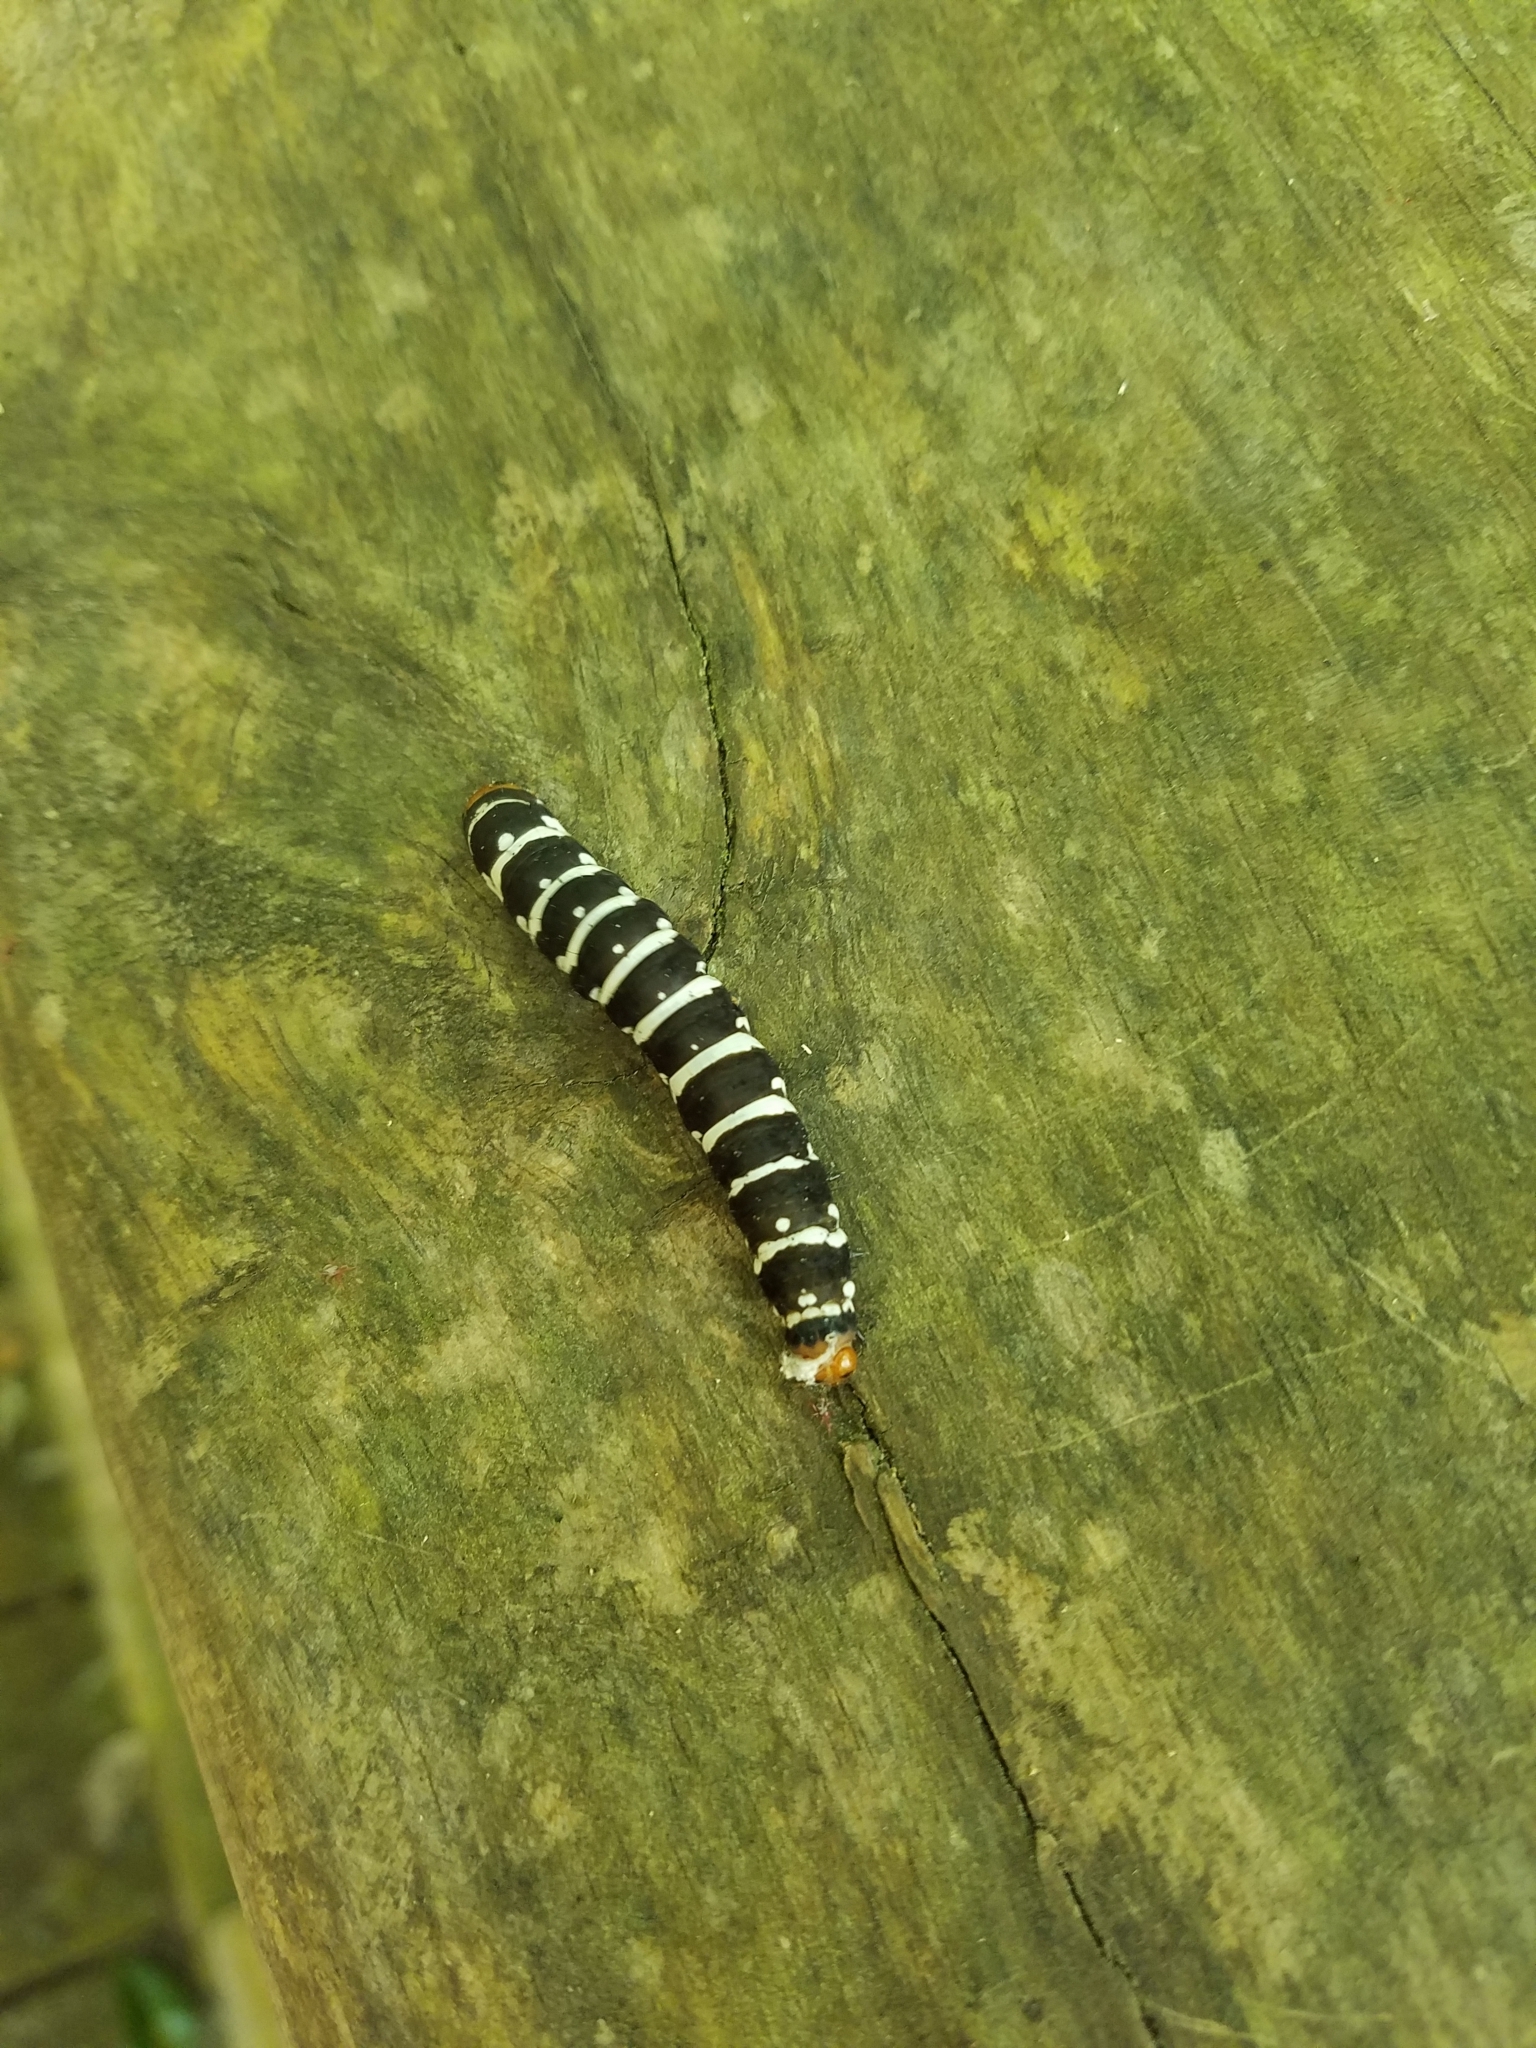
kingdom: Animalia
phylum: Arthropoda
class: Insecta
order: Lepidoptera
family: Noctuidae
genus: Xanthopastis
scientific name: Xanthopastis regnatrix
